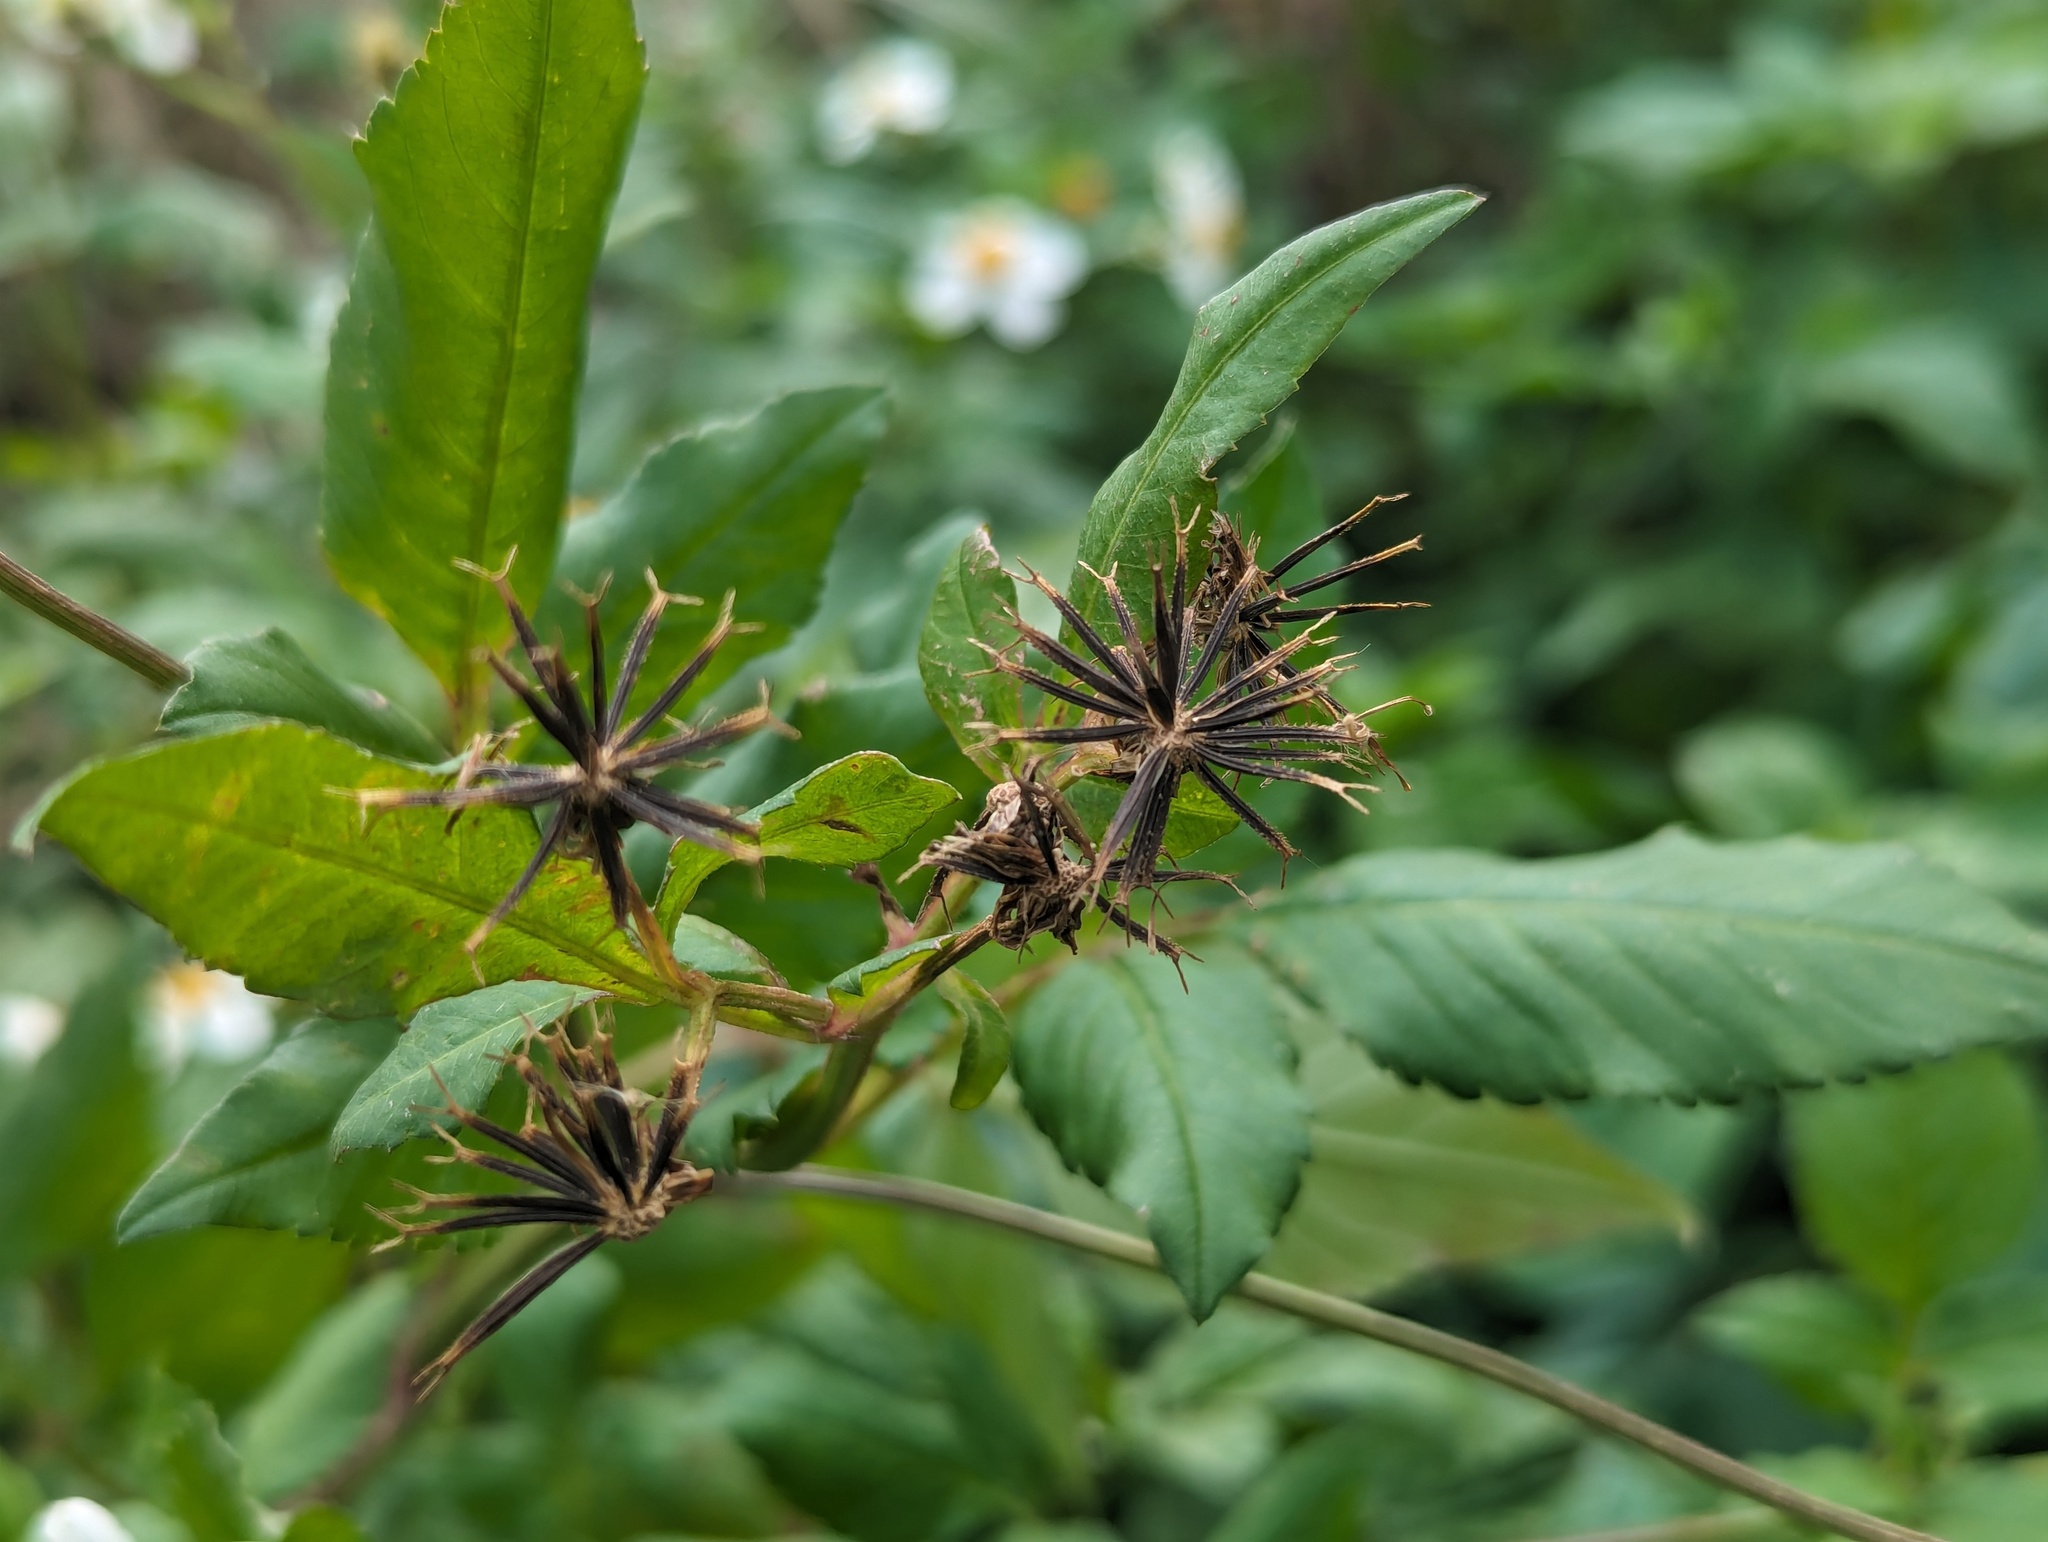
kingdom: Plantae
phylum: Tracheophyta
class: Magnoliopsida
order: Asterales
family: Asteraceae
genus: Bidens
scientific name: Bidens alba
